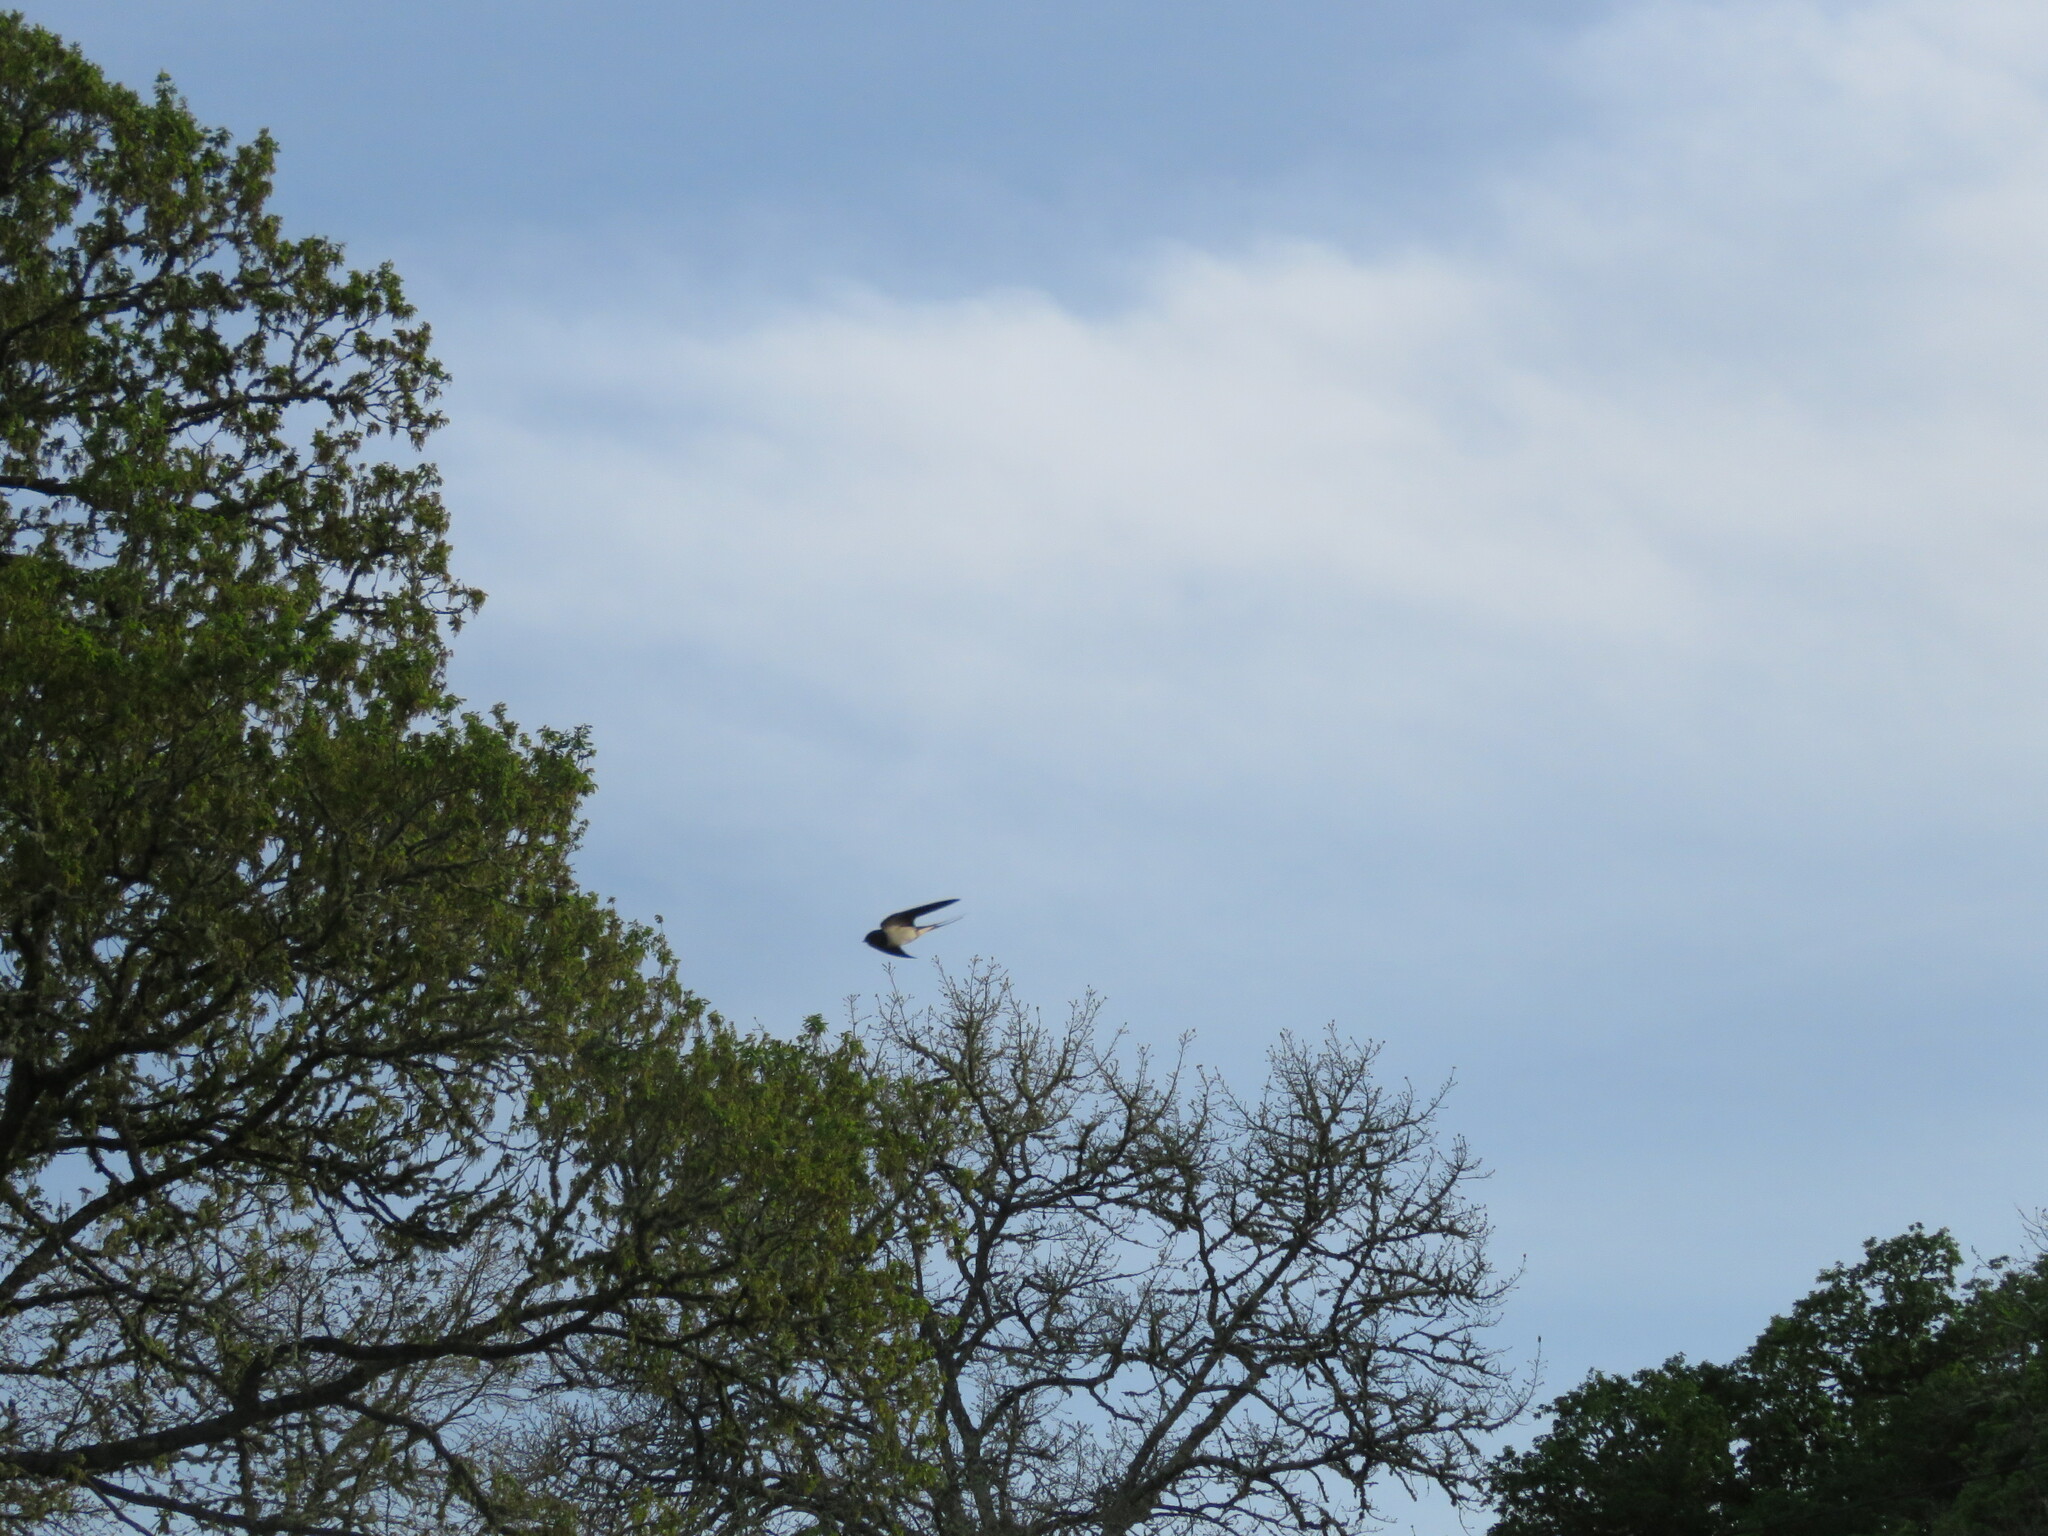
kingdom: Animalia
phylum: Chordata
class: Aves
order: Passeriformes
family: Hirundinidae
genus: Hirundo
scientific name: Hirundo rustica
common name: Barn swallow
